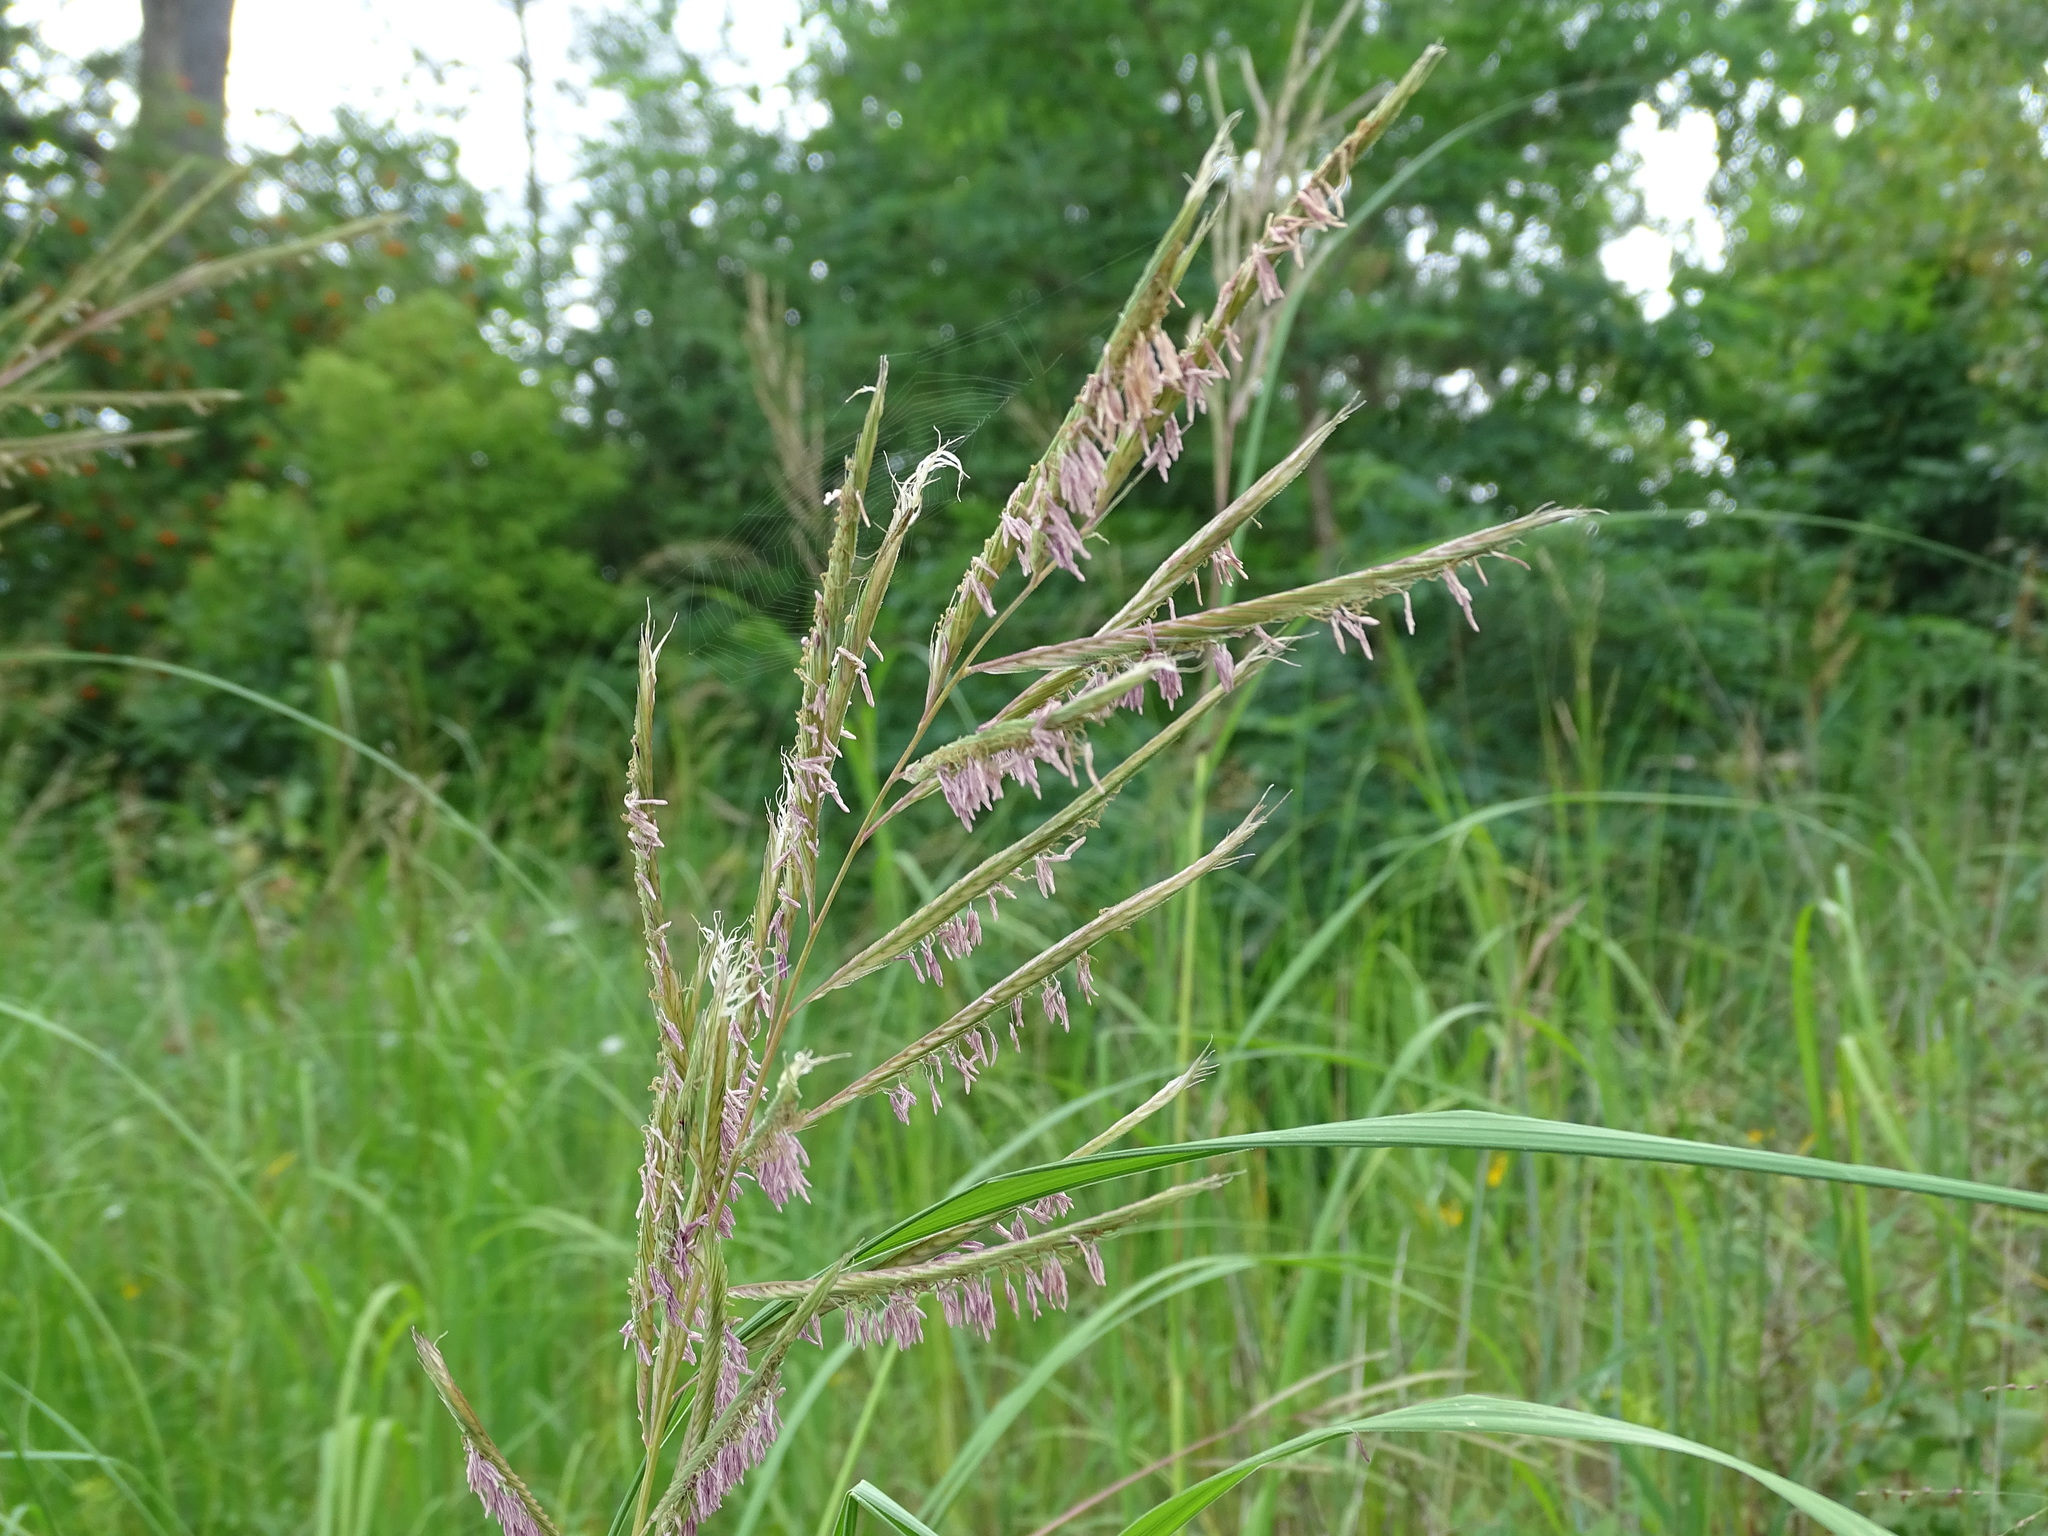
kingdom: Plantae
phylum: Tracheophyta
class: Liliopsida
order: Poales
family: Poaceae
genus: Sporobolus
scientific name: Sporobolus michauxianus
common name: Freshwater cordgrass
